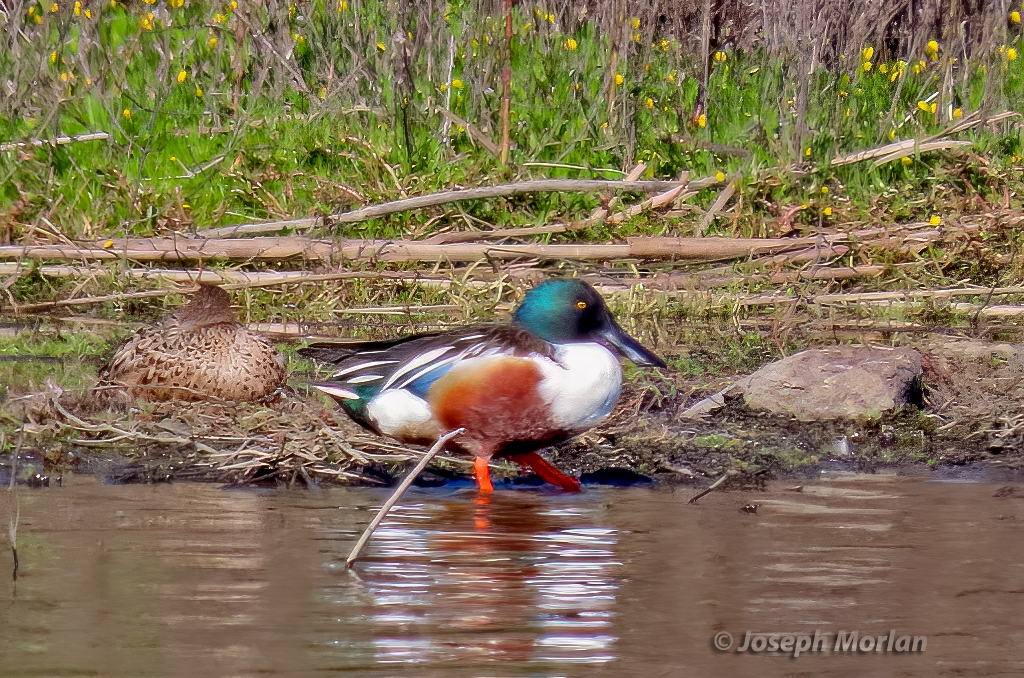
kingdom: Animalia
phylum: Chordata
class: Aves
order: Anseriformes
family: Anatidae
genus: Spatula
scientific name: Spatula clypeata
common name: Northern shoveler
